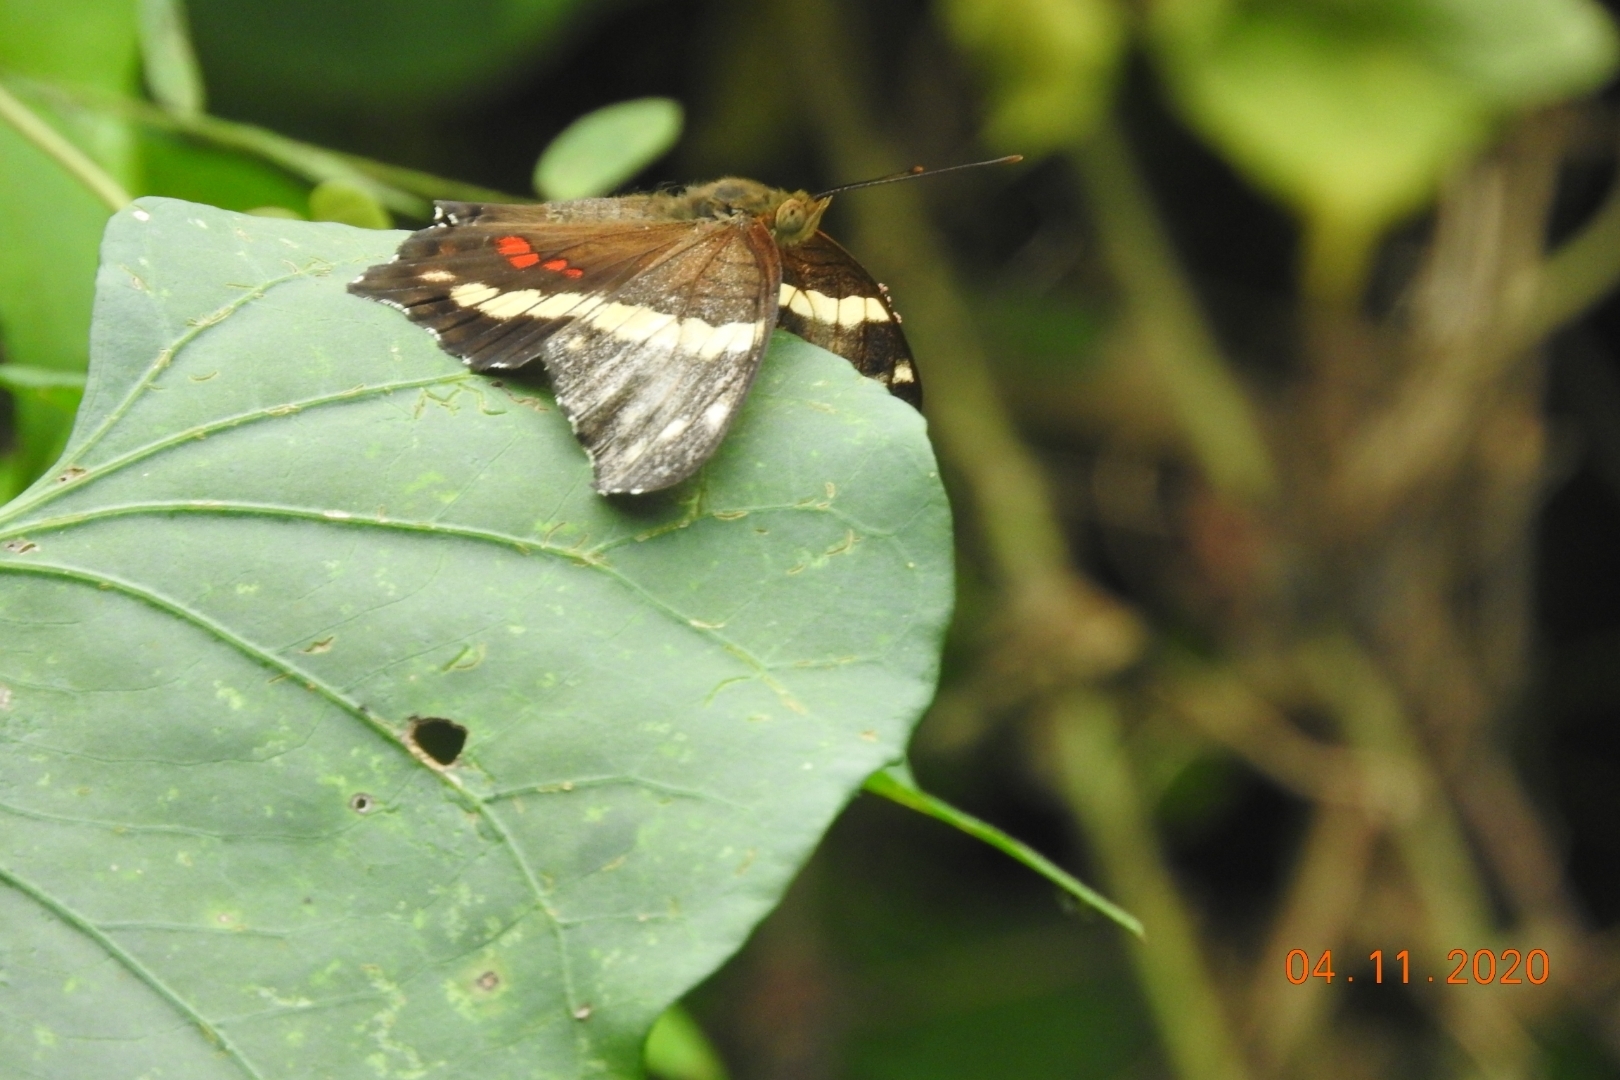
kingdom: Animalia
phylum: Arthropoda
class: Insecta
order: Lepidoptera
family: Nymphalidae
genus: Anartia
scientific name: Anartia fatima
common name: Banded peacock
